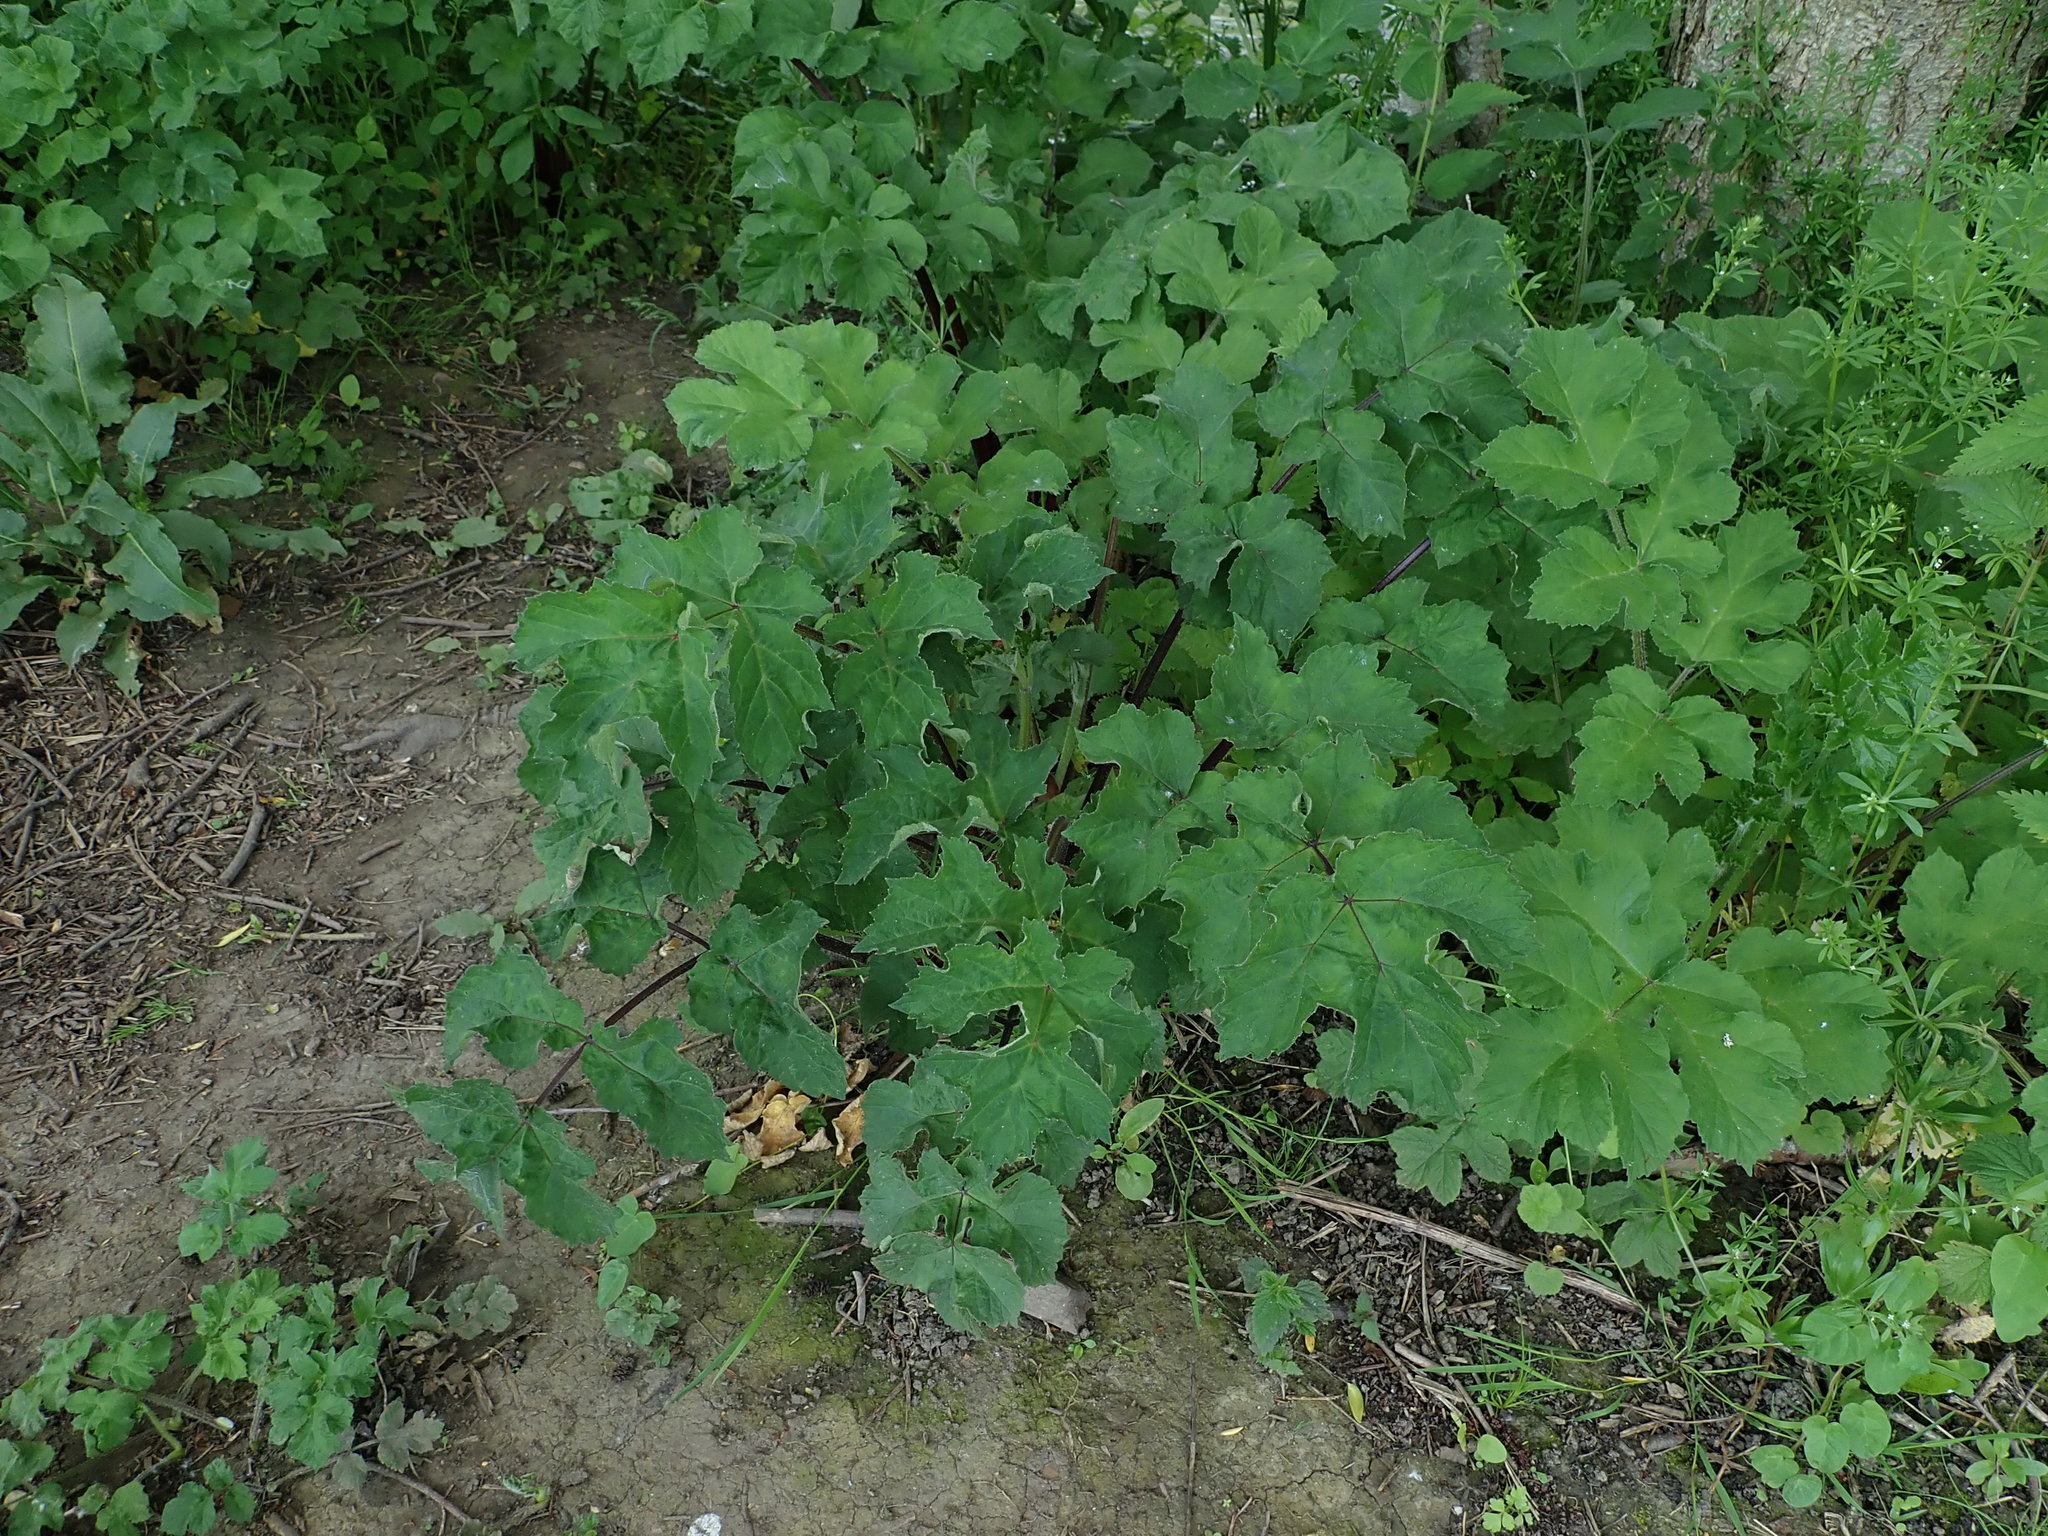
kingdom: Plantae
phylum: Tracheophyta
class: Magnoliopsida
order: Apiales
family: Apiaceae
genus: Heracleum
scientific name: Heracleum sphondylium
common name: Hogweed
